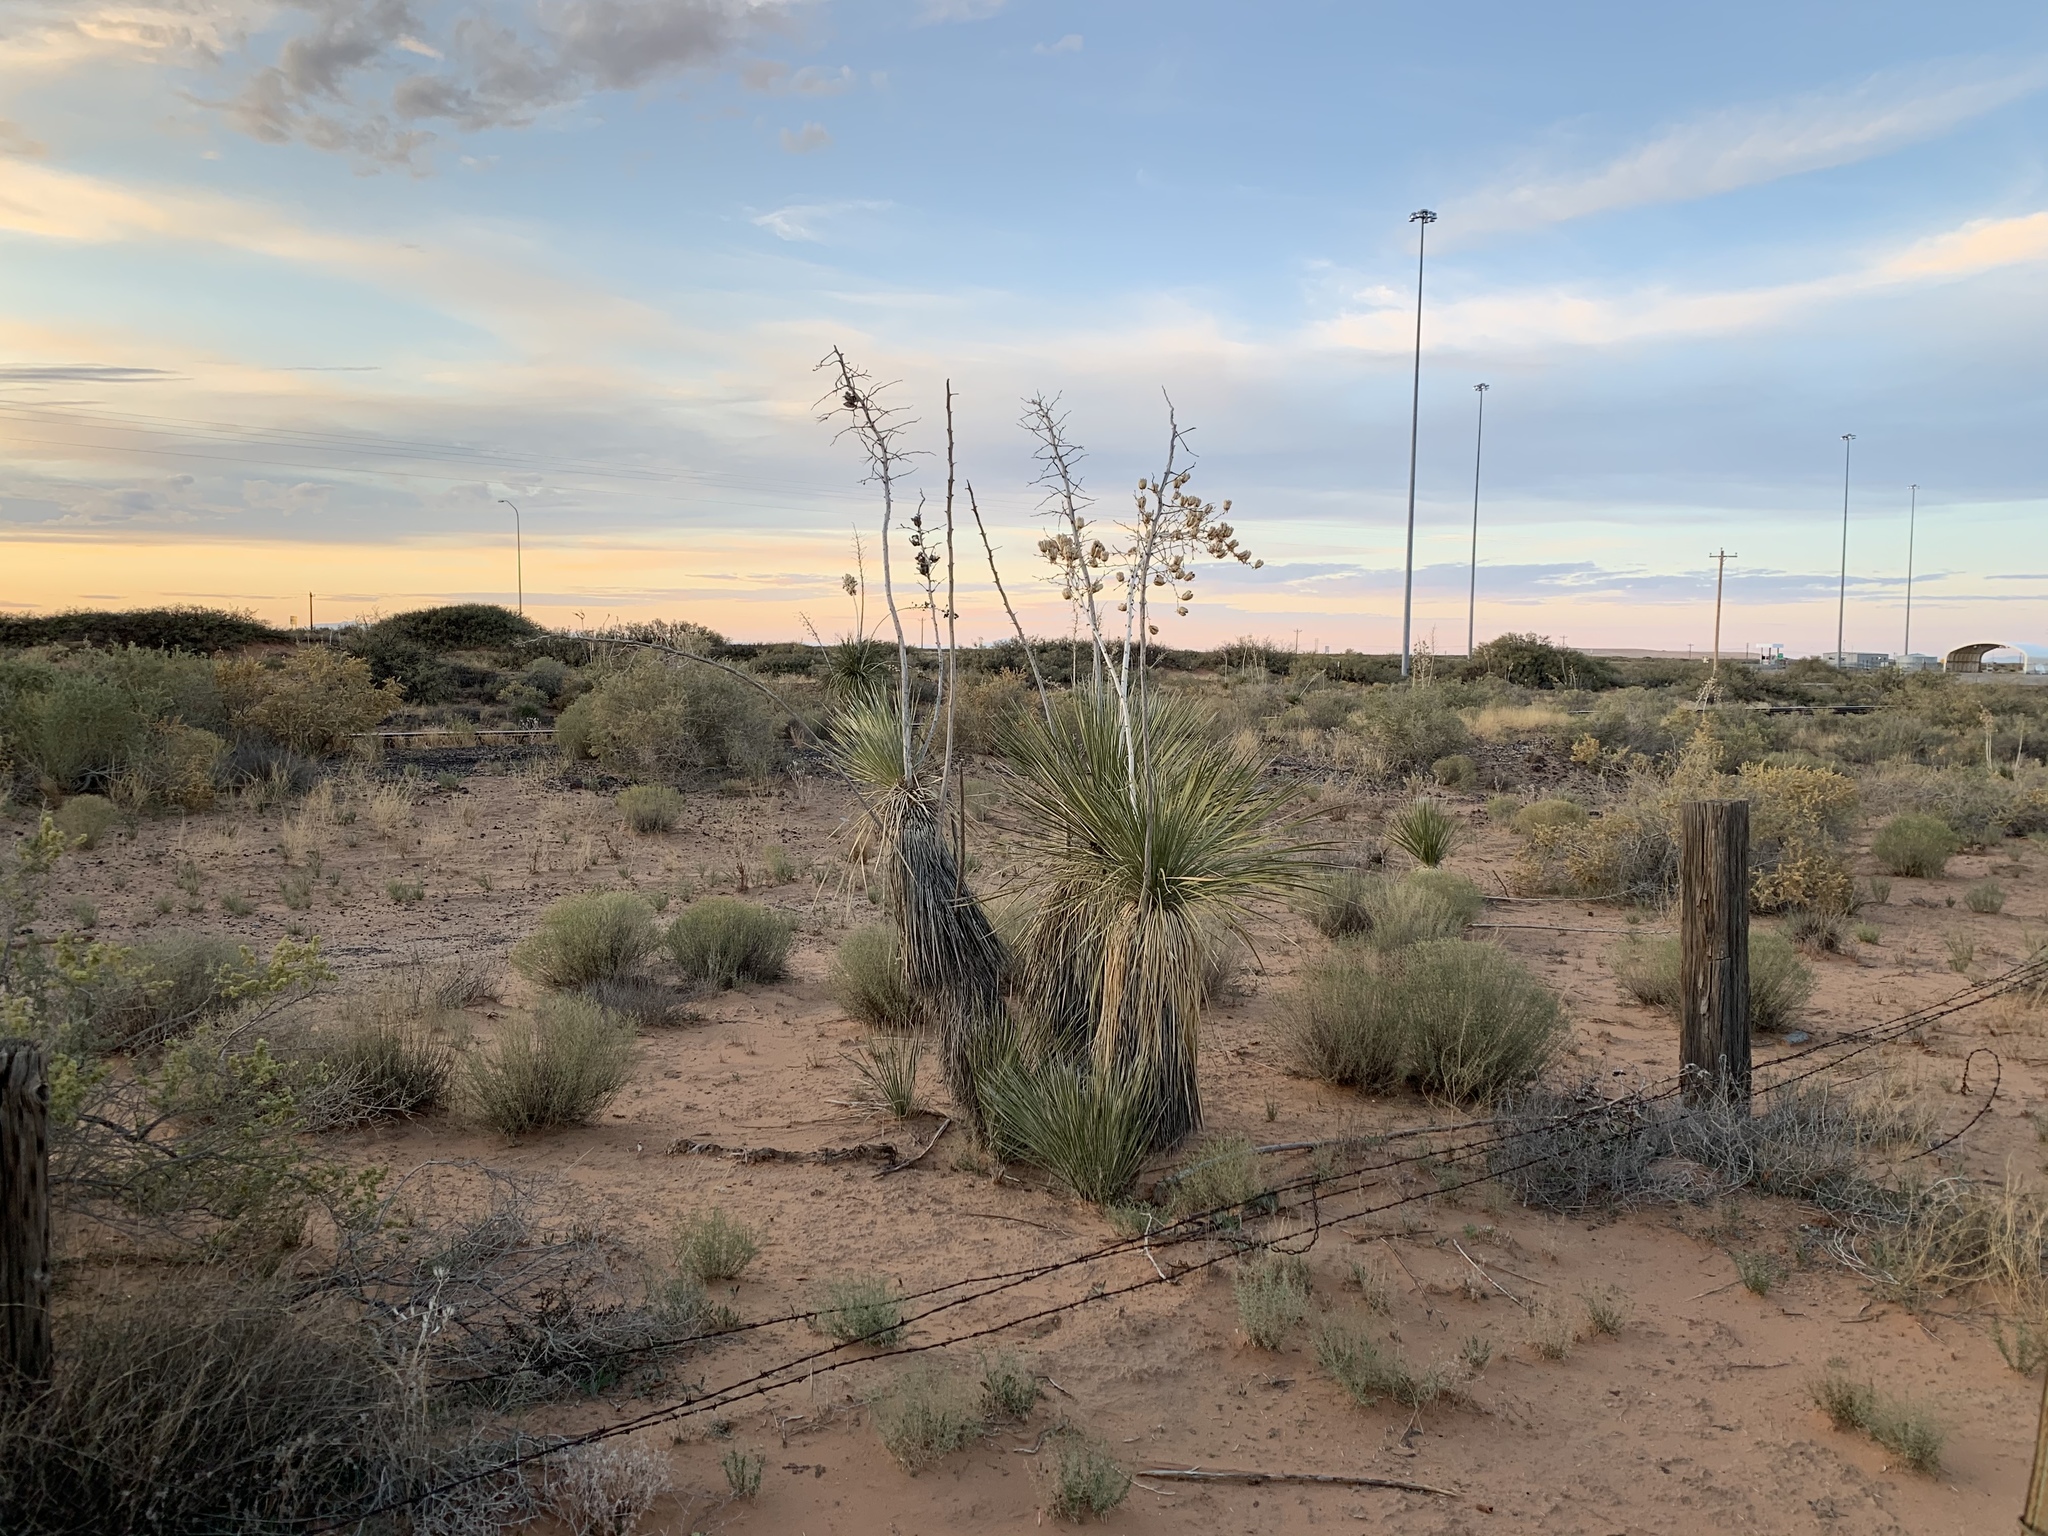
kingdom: Plantae
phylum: Tracheophyta
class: Liliopsida
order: Asparagales
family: Asparagaceae
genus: Yucca
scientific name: Yucca elata
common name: Palmella
